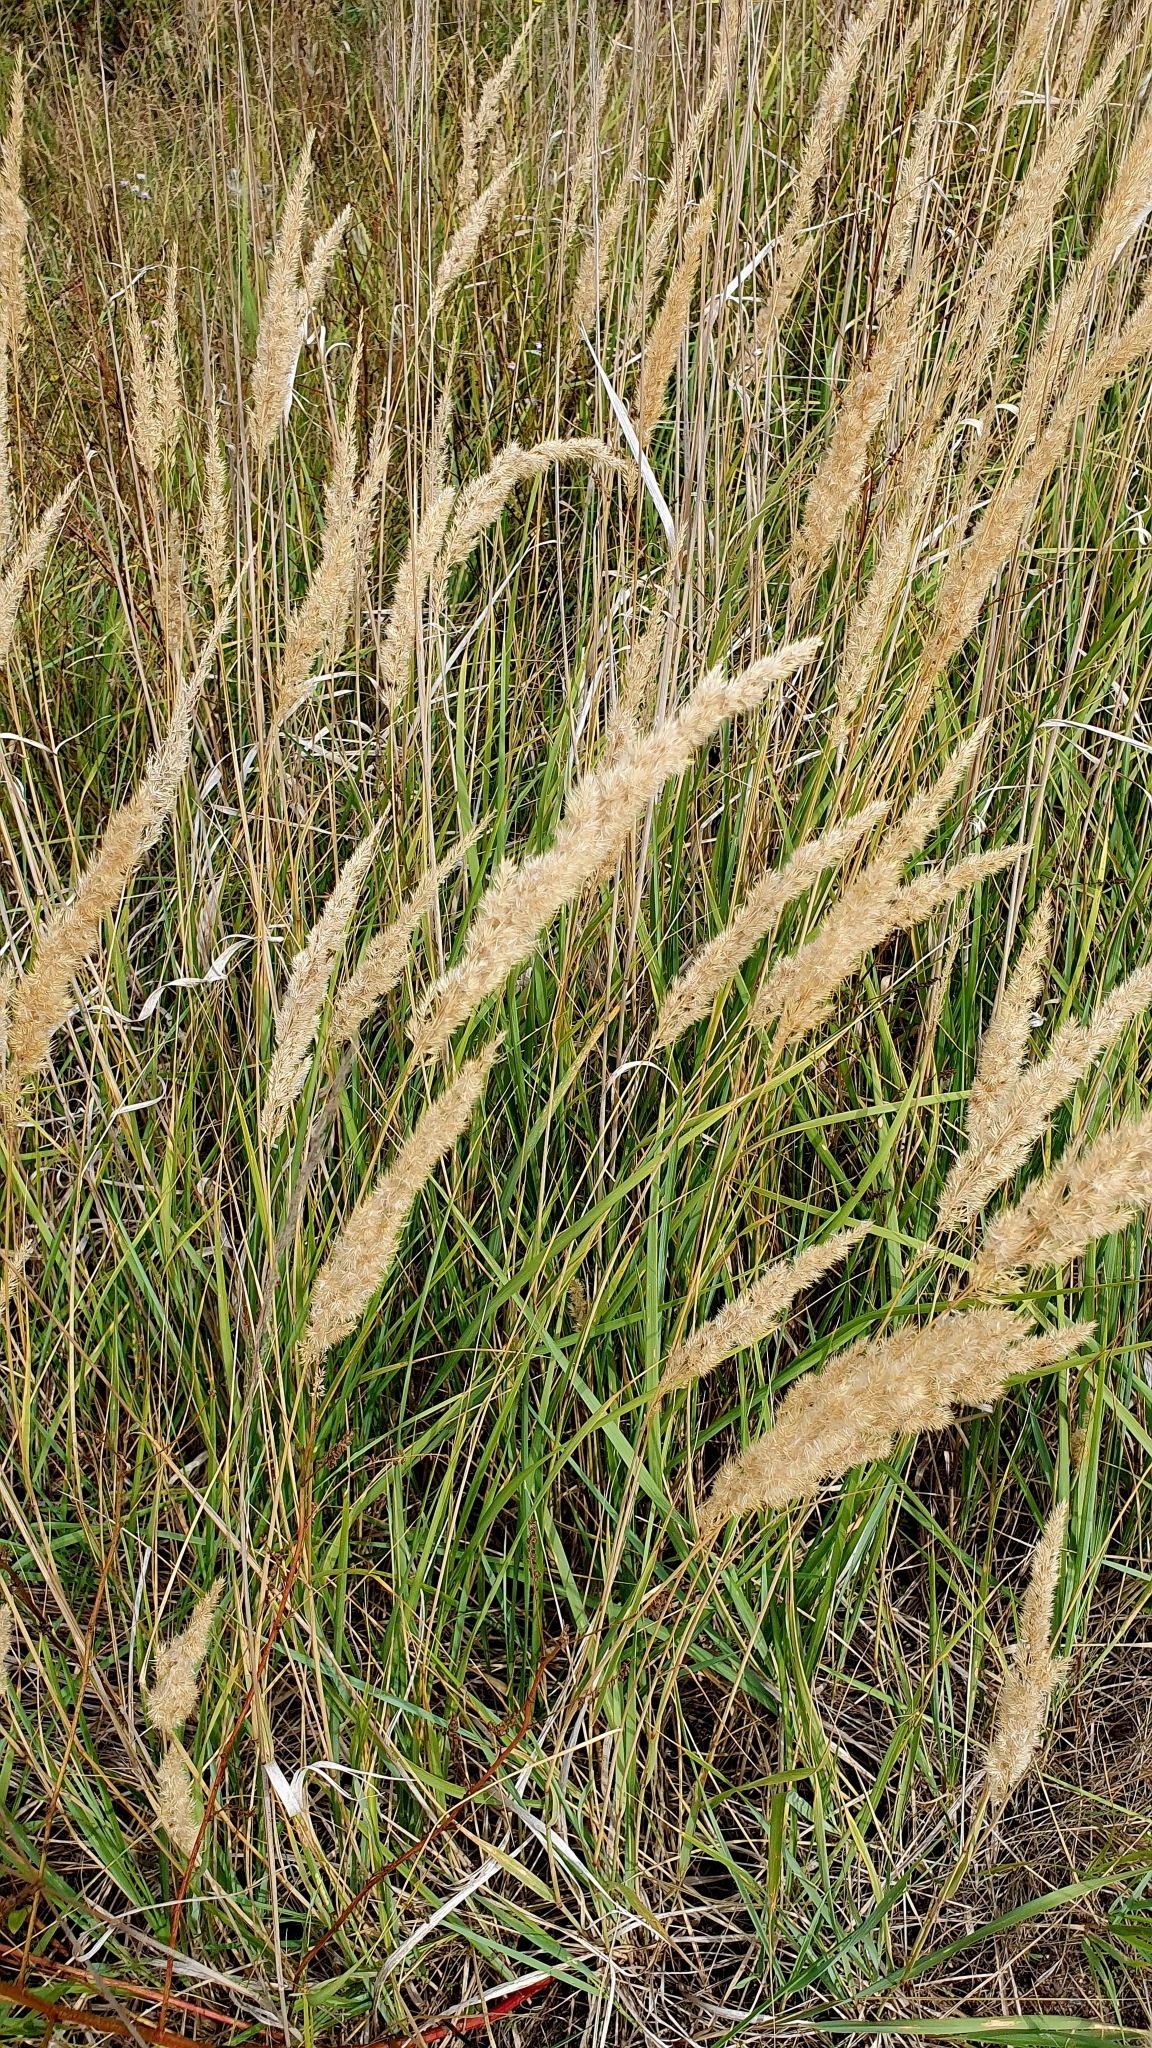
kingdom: Plantae
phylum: Tracheophyta
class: Liliopsida
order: Poales
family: Poaceae
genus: Calamagrostis
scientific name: Calamagrostis epigejos
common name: Wood small-reed
